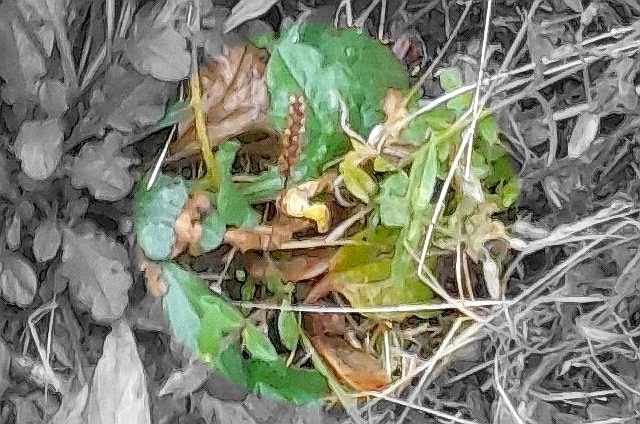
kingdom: Plantae
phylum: Tracheophyta
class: Magnoliopsida
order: Lamiales
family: Plantaginaceae
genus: Plantago
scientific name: Plantago major
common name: Common plantain
